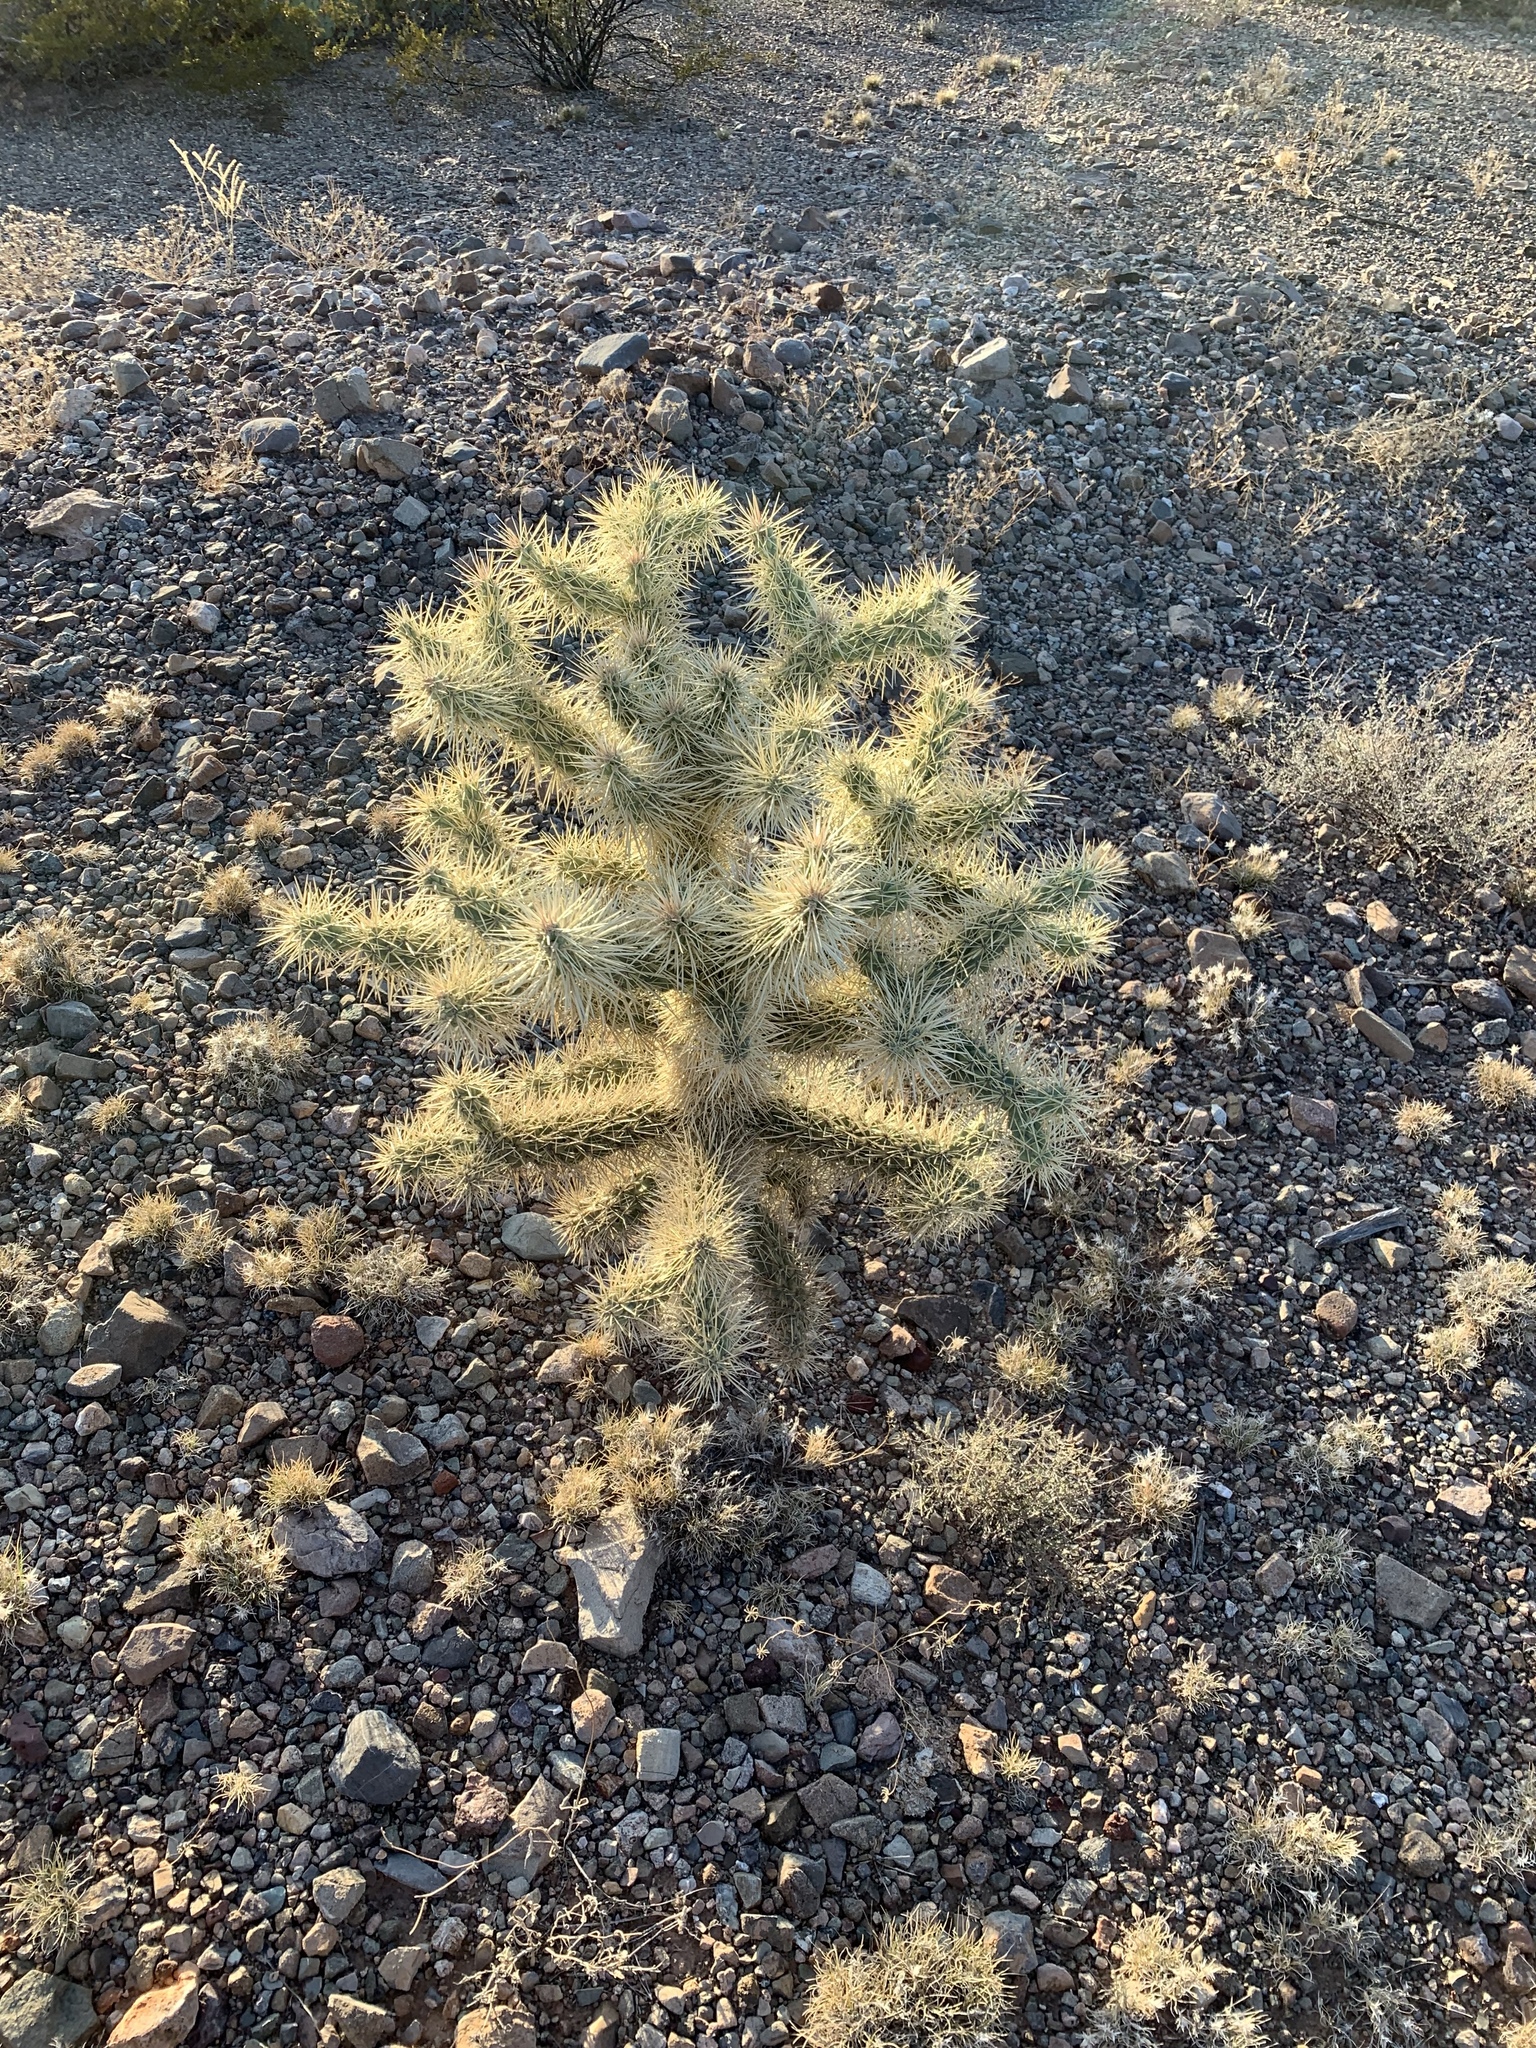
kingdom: Plantae
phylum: Tracheophyta
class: Magnoliopsida
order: Caryophyllales
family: Cactaceae
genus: Cylindropuntia
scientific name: Cylindropuntia fulgida
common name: Jumping cholla
